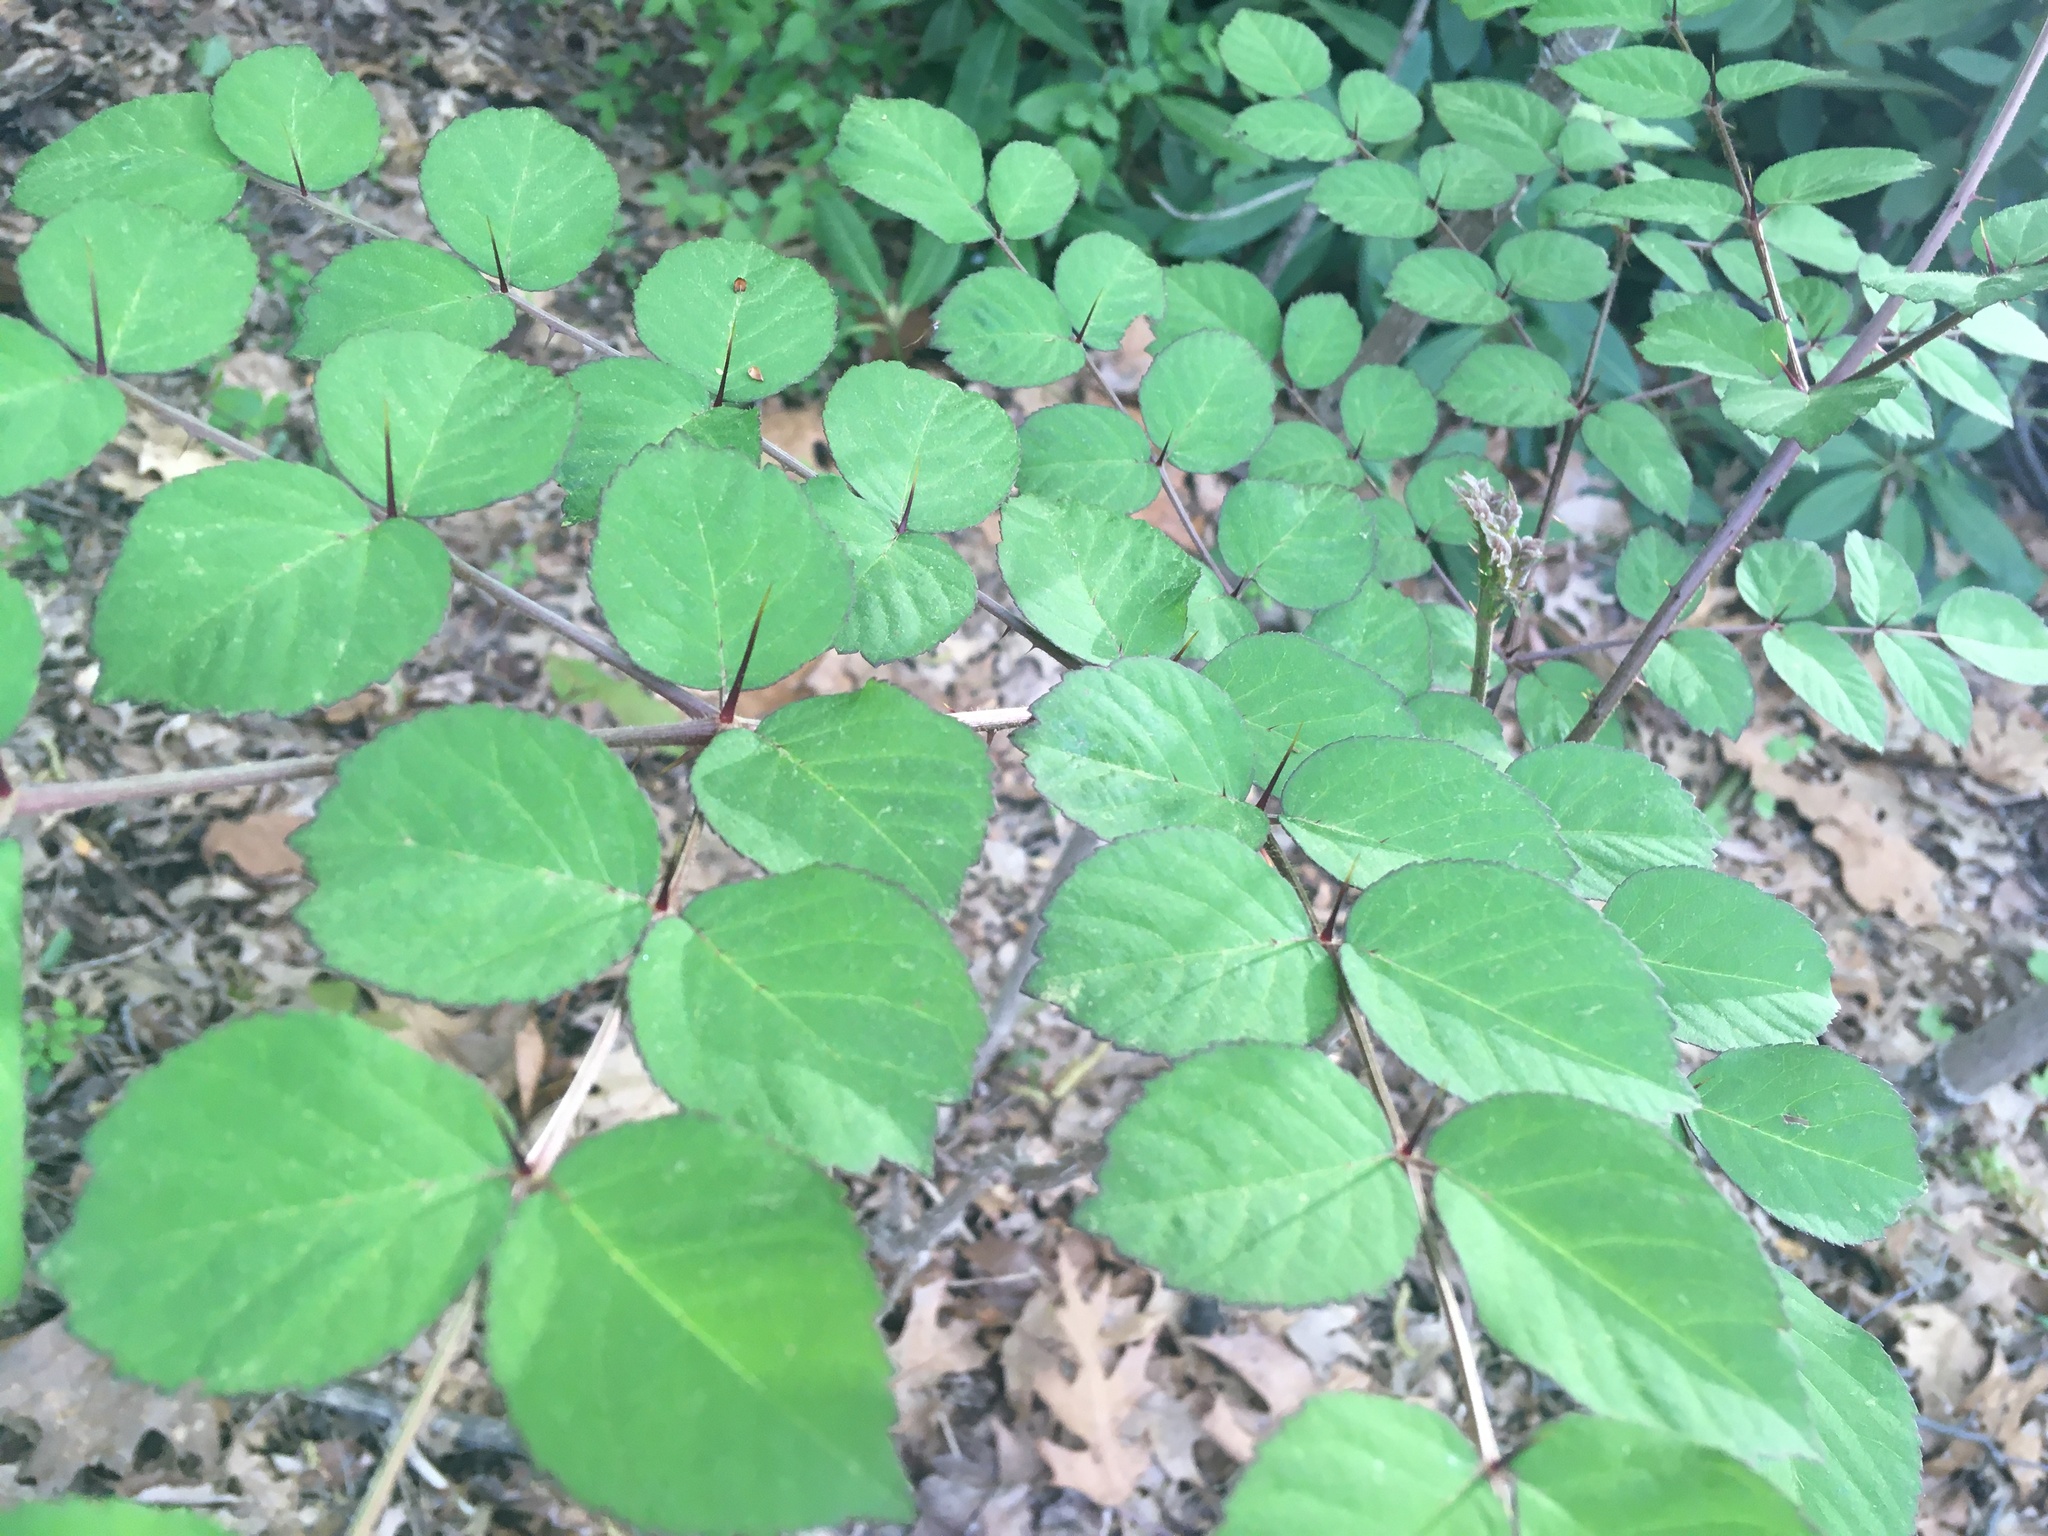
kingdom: Plantae
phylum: Tracheophyta
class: Magnoliopsida
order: Apiales
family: Araliaceae
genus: Aralia
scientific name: Aralia elata
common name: Japanese angelica-tree
